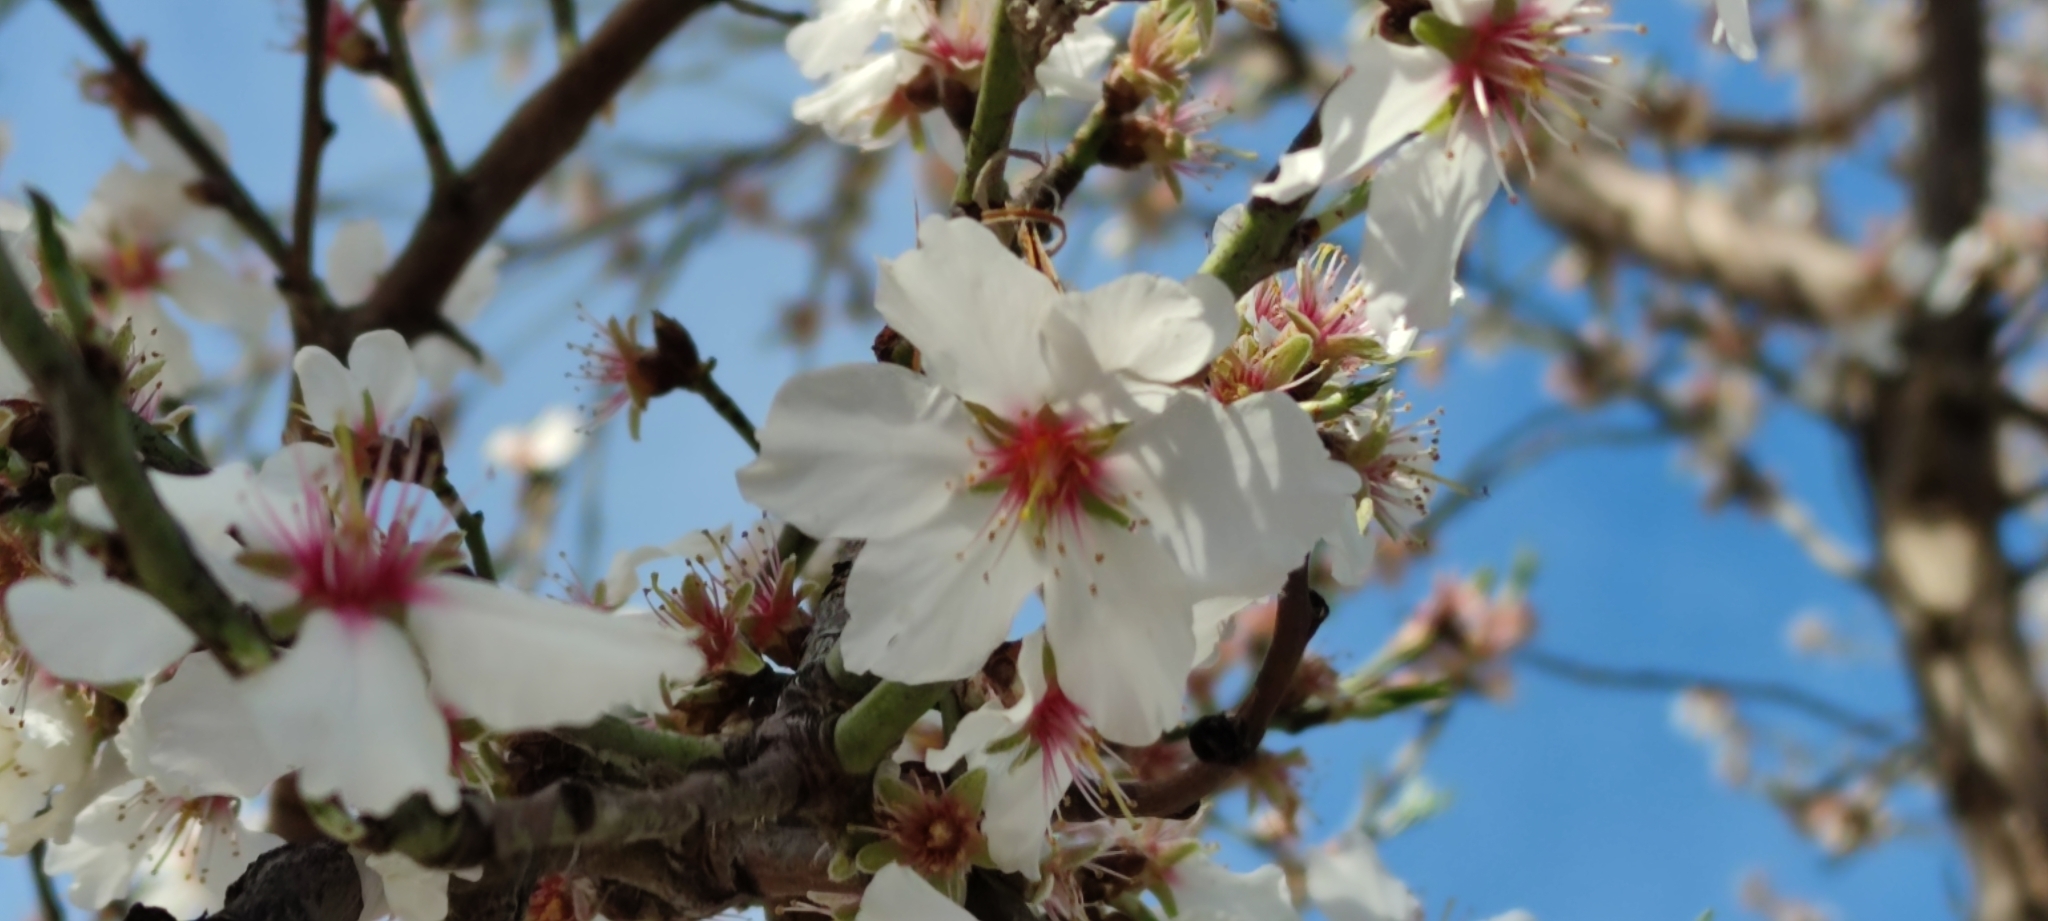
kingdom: Plantae
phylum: Tracheophyta
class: Magnoliopsida
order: Rosales
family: Rosaceae
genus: Prunus
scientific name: Prunus amygdalus
